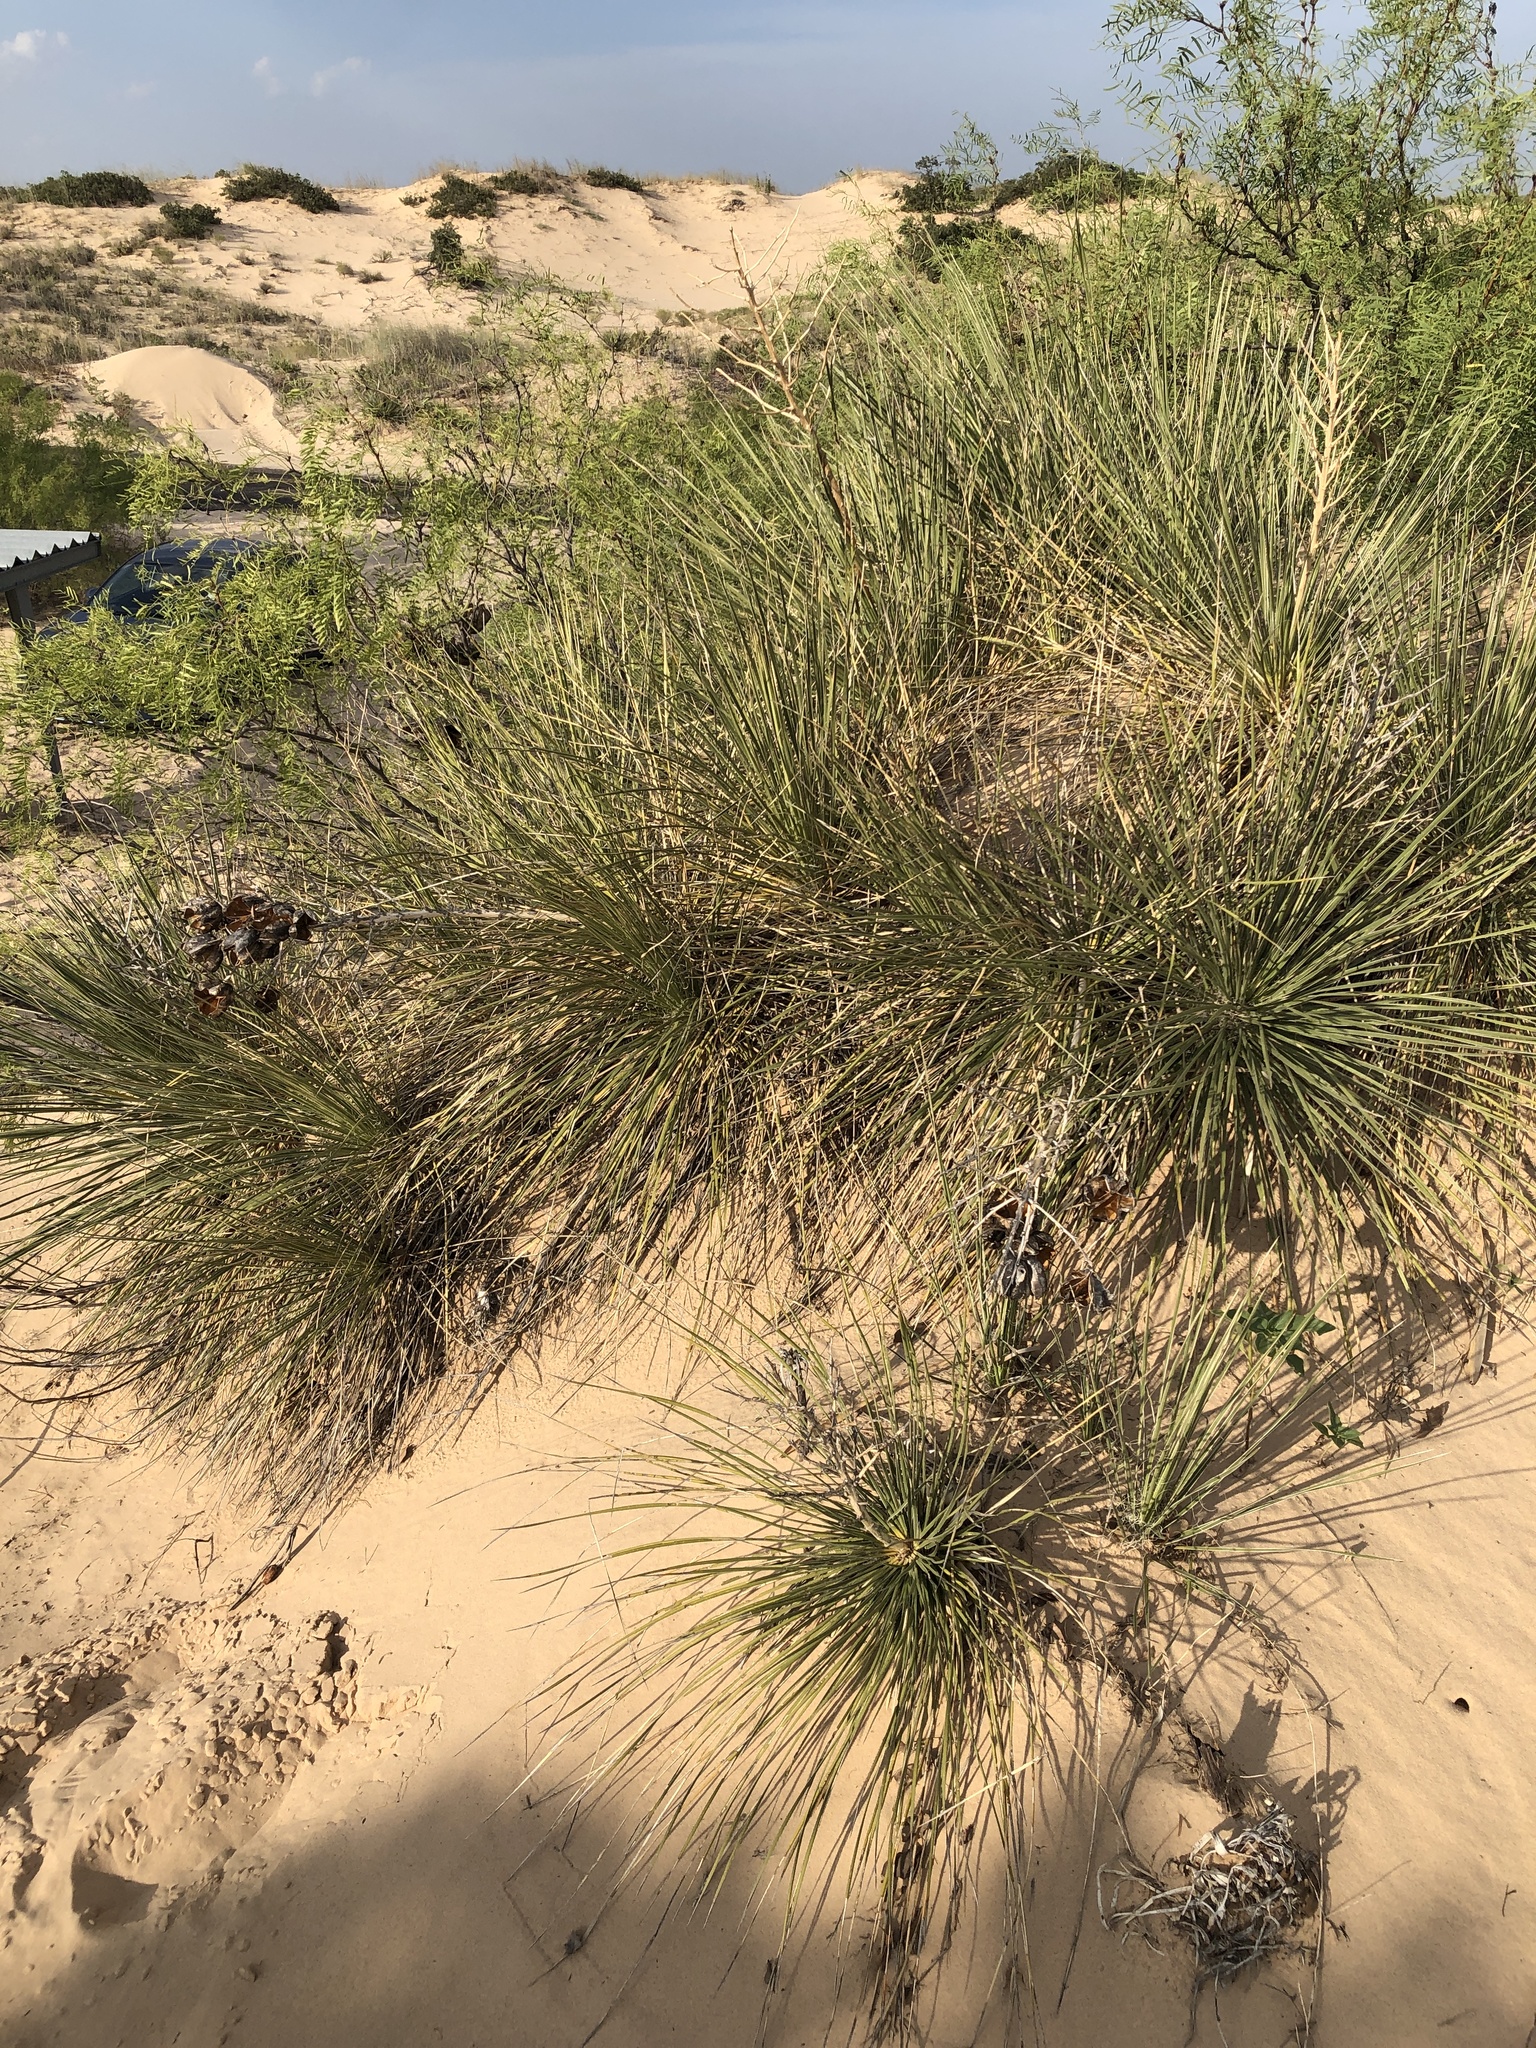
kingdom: Plantae
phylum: Tracheophyta
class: Liliopsida
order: Asparagales
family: Asparagaceae
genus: Yucca
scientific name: Yucca campestris
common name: Plains yucca
